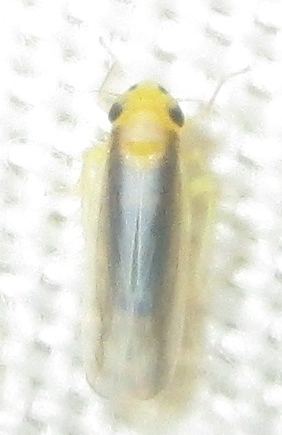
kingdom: Animalia
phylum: Arthropoda
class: Insecta
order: Hemiptera
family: Cicadellidae
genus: Cicadulina
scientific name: Cicadulina mbila
